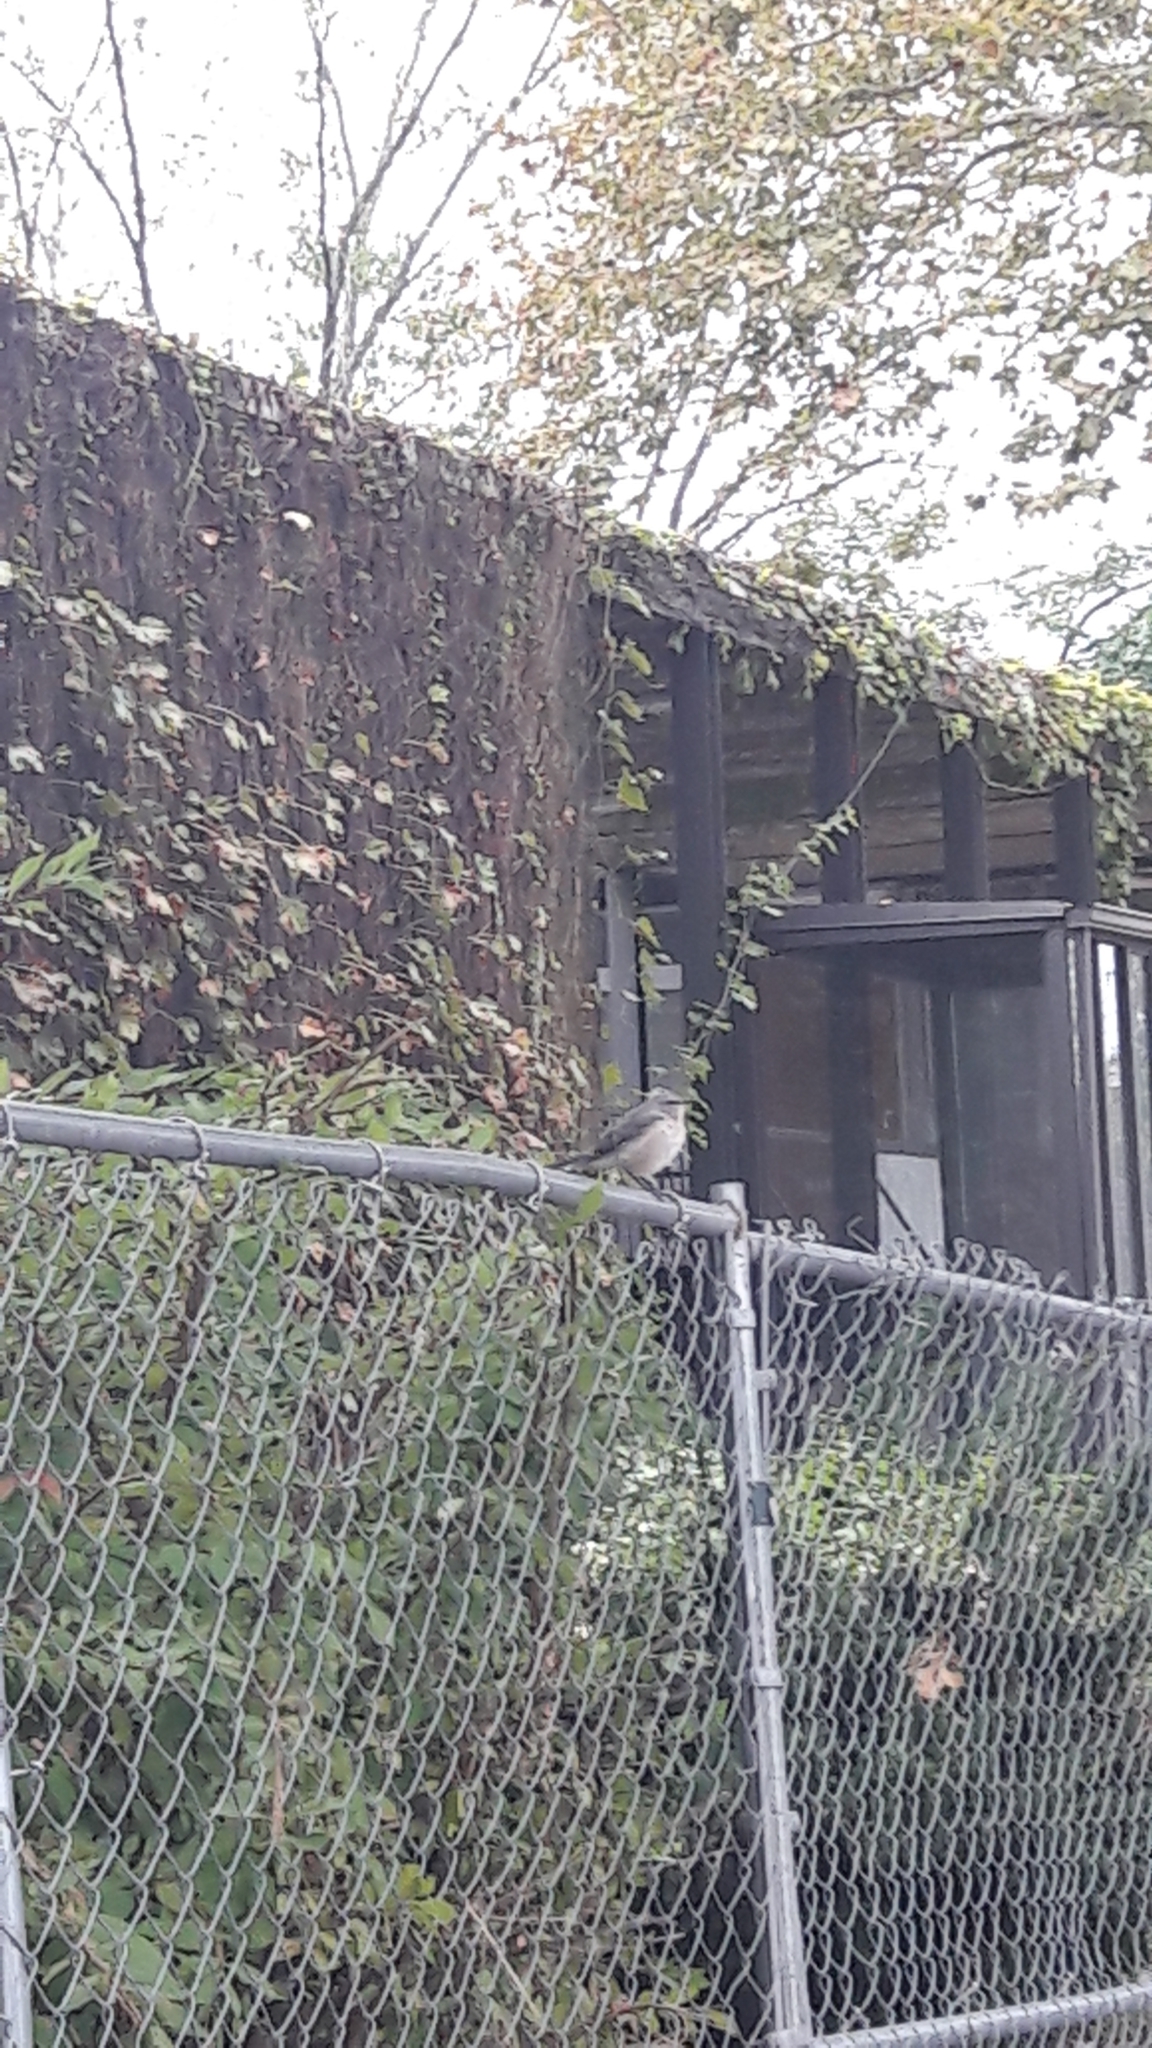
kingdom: Animalia
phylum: Chordata
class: Aves
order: Passeriformes
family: Mimidae
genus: Mimus
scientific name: Mimus polyglottos
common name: Northern mockingbird
